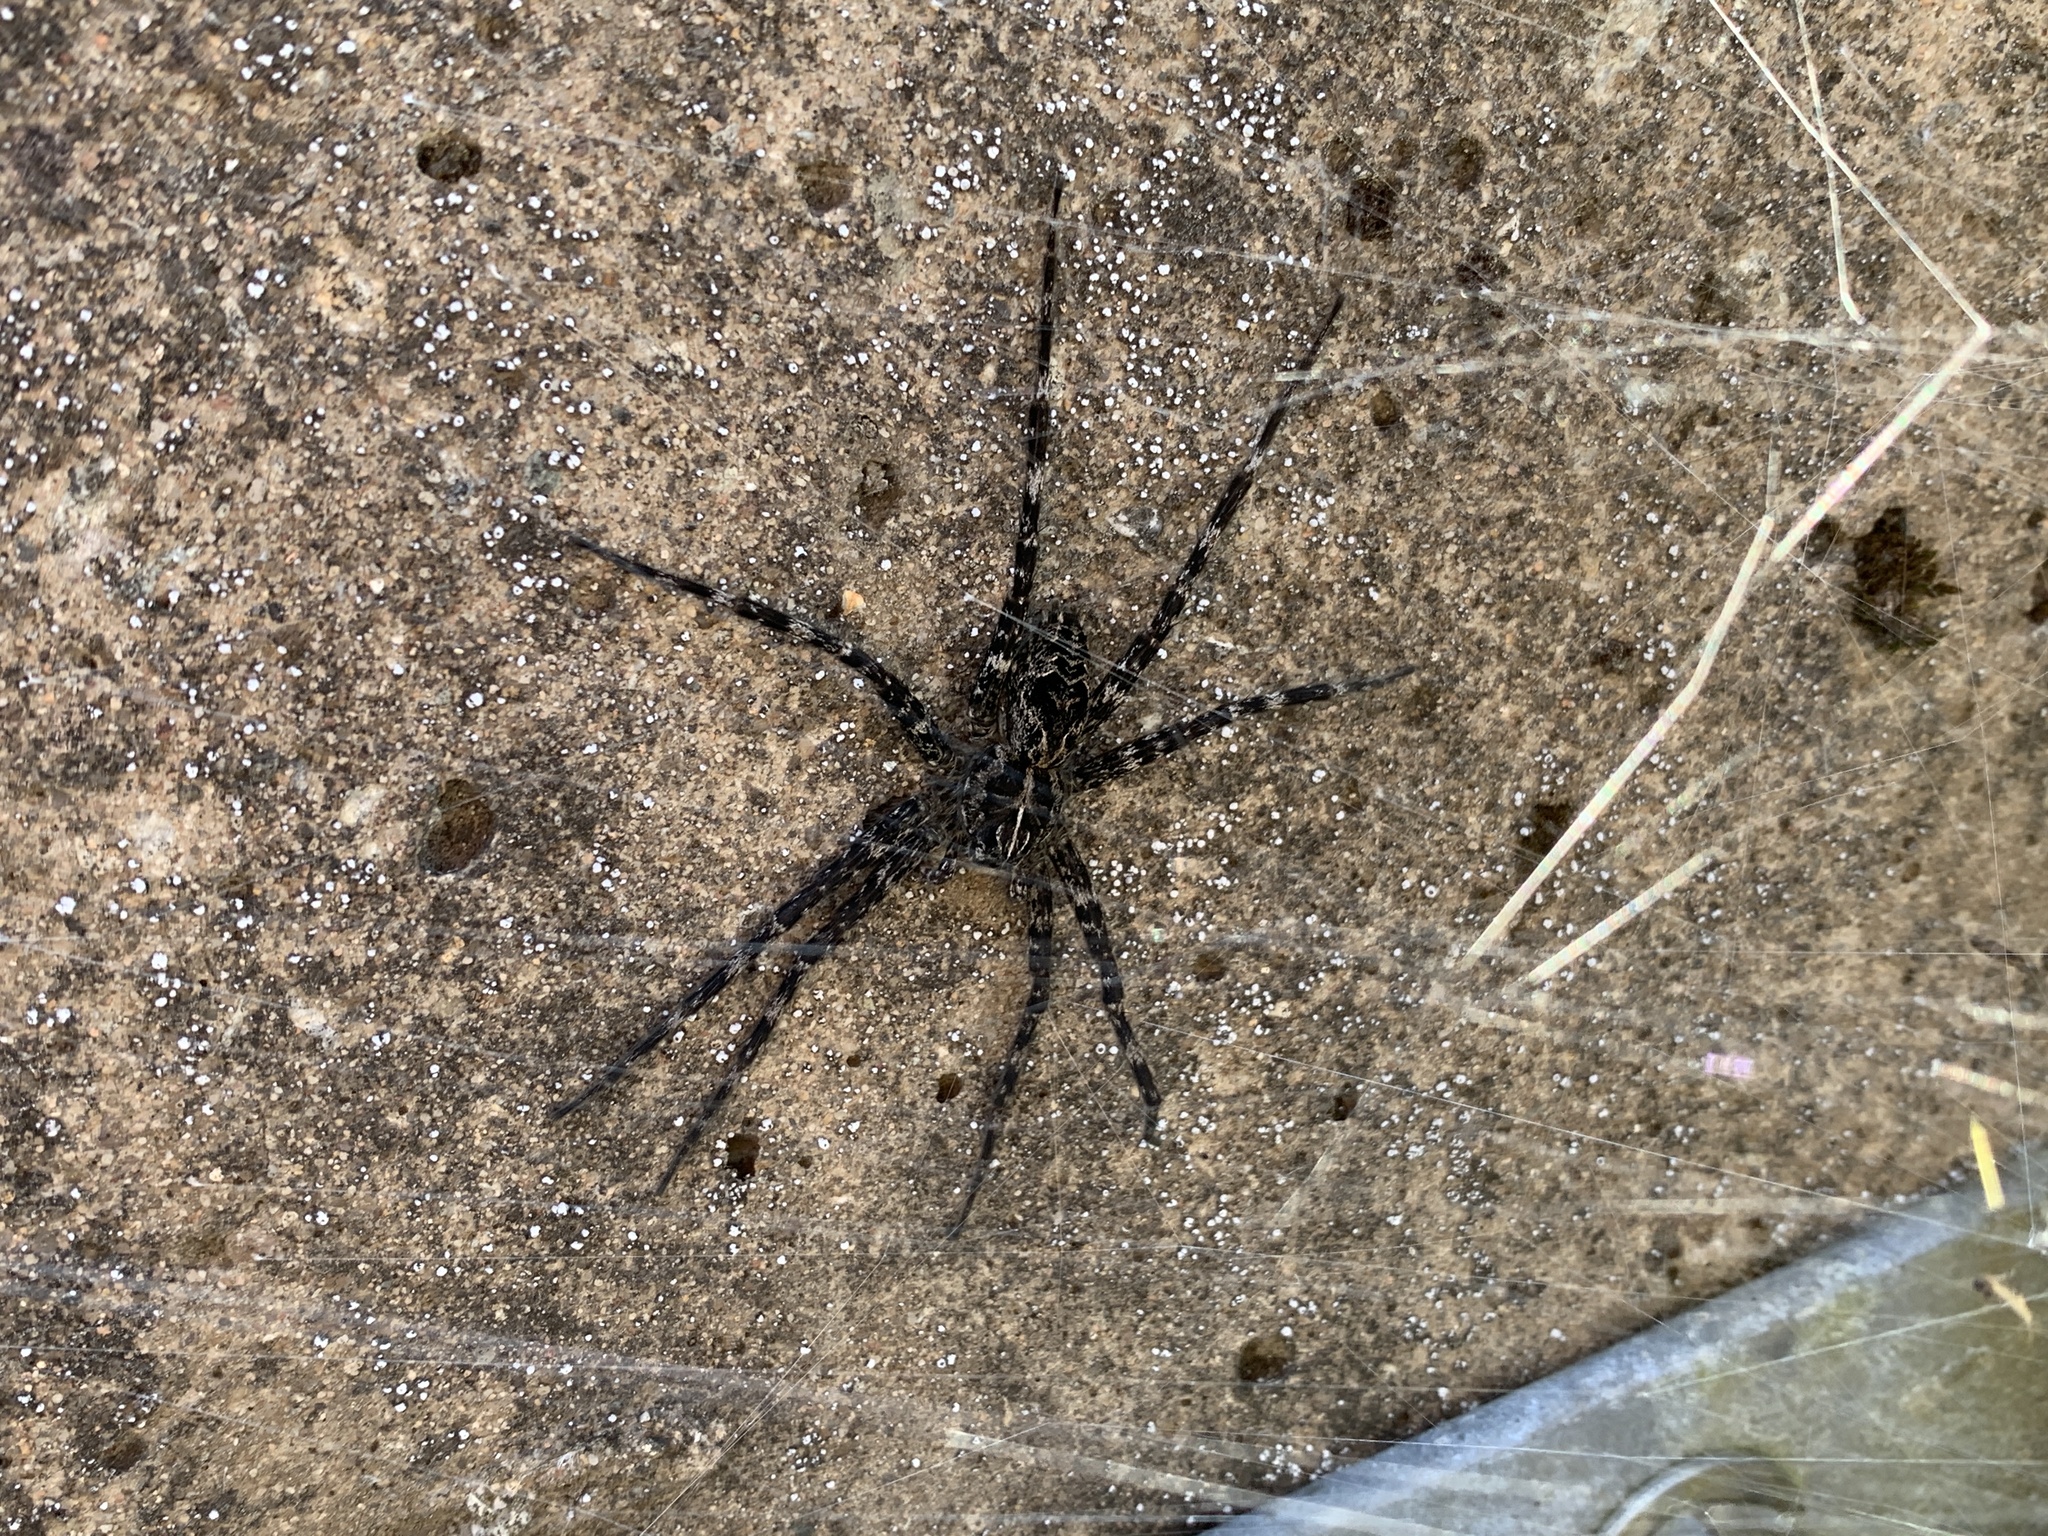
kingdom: Animalia
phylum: Arthropoda
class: Arachnida
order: Araneae
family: Pisauridae
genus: Dolomedes
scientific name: Dolomedes scriptus
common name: Striped fishing spider
